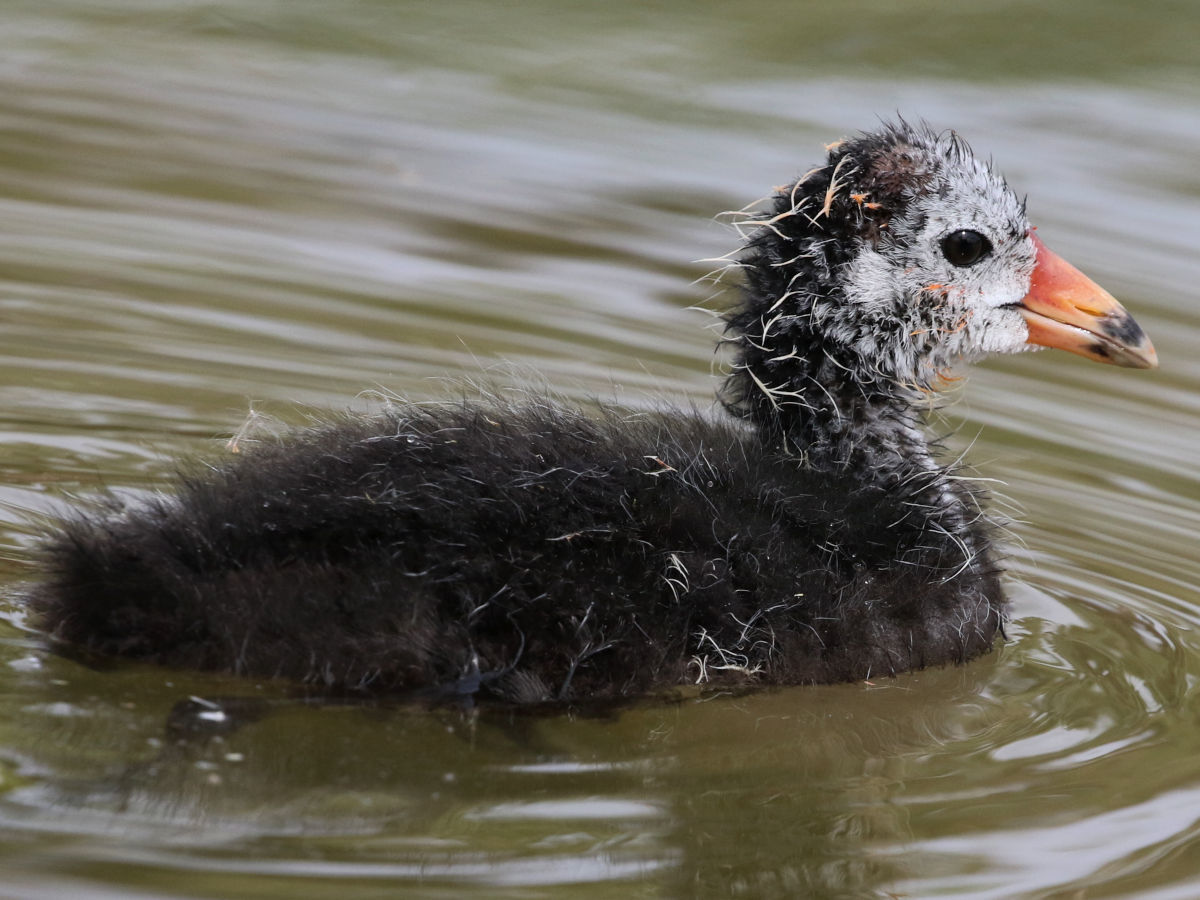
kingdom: Animalia
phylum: Chordata
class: Aves
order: Gruiformes
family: Rallidae
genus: Fulica
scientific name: Fulica americana
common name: American coot
